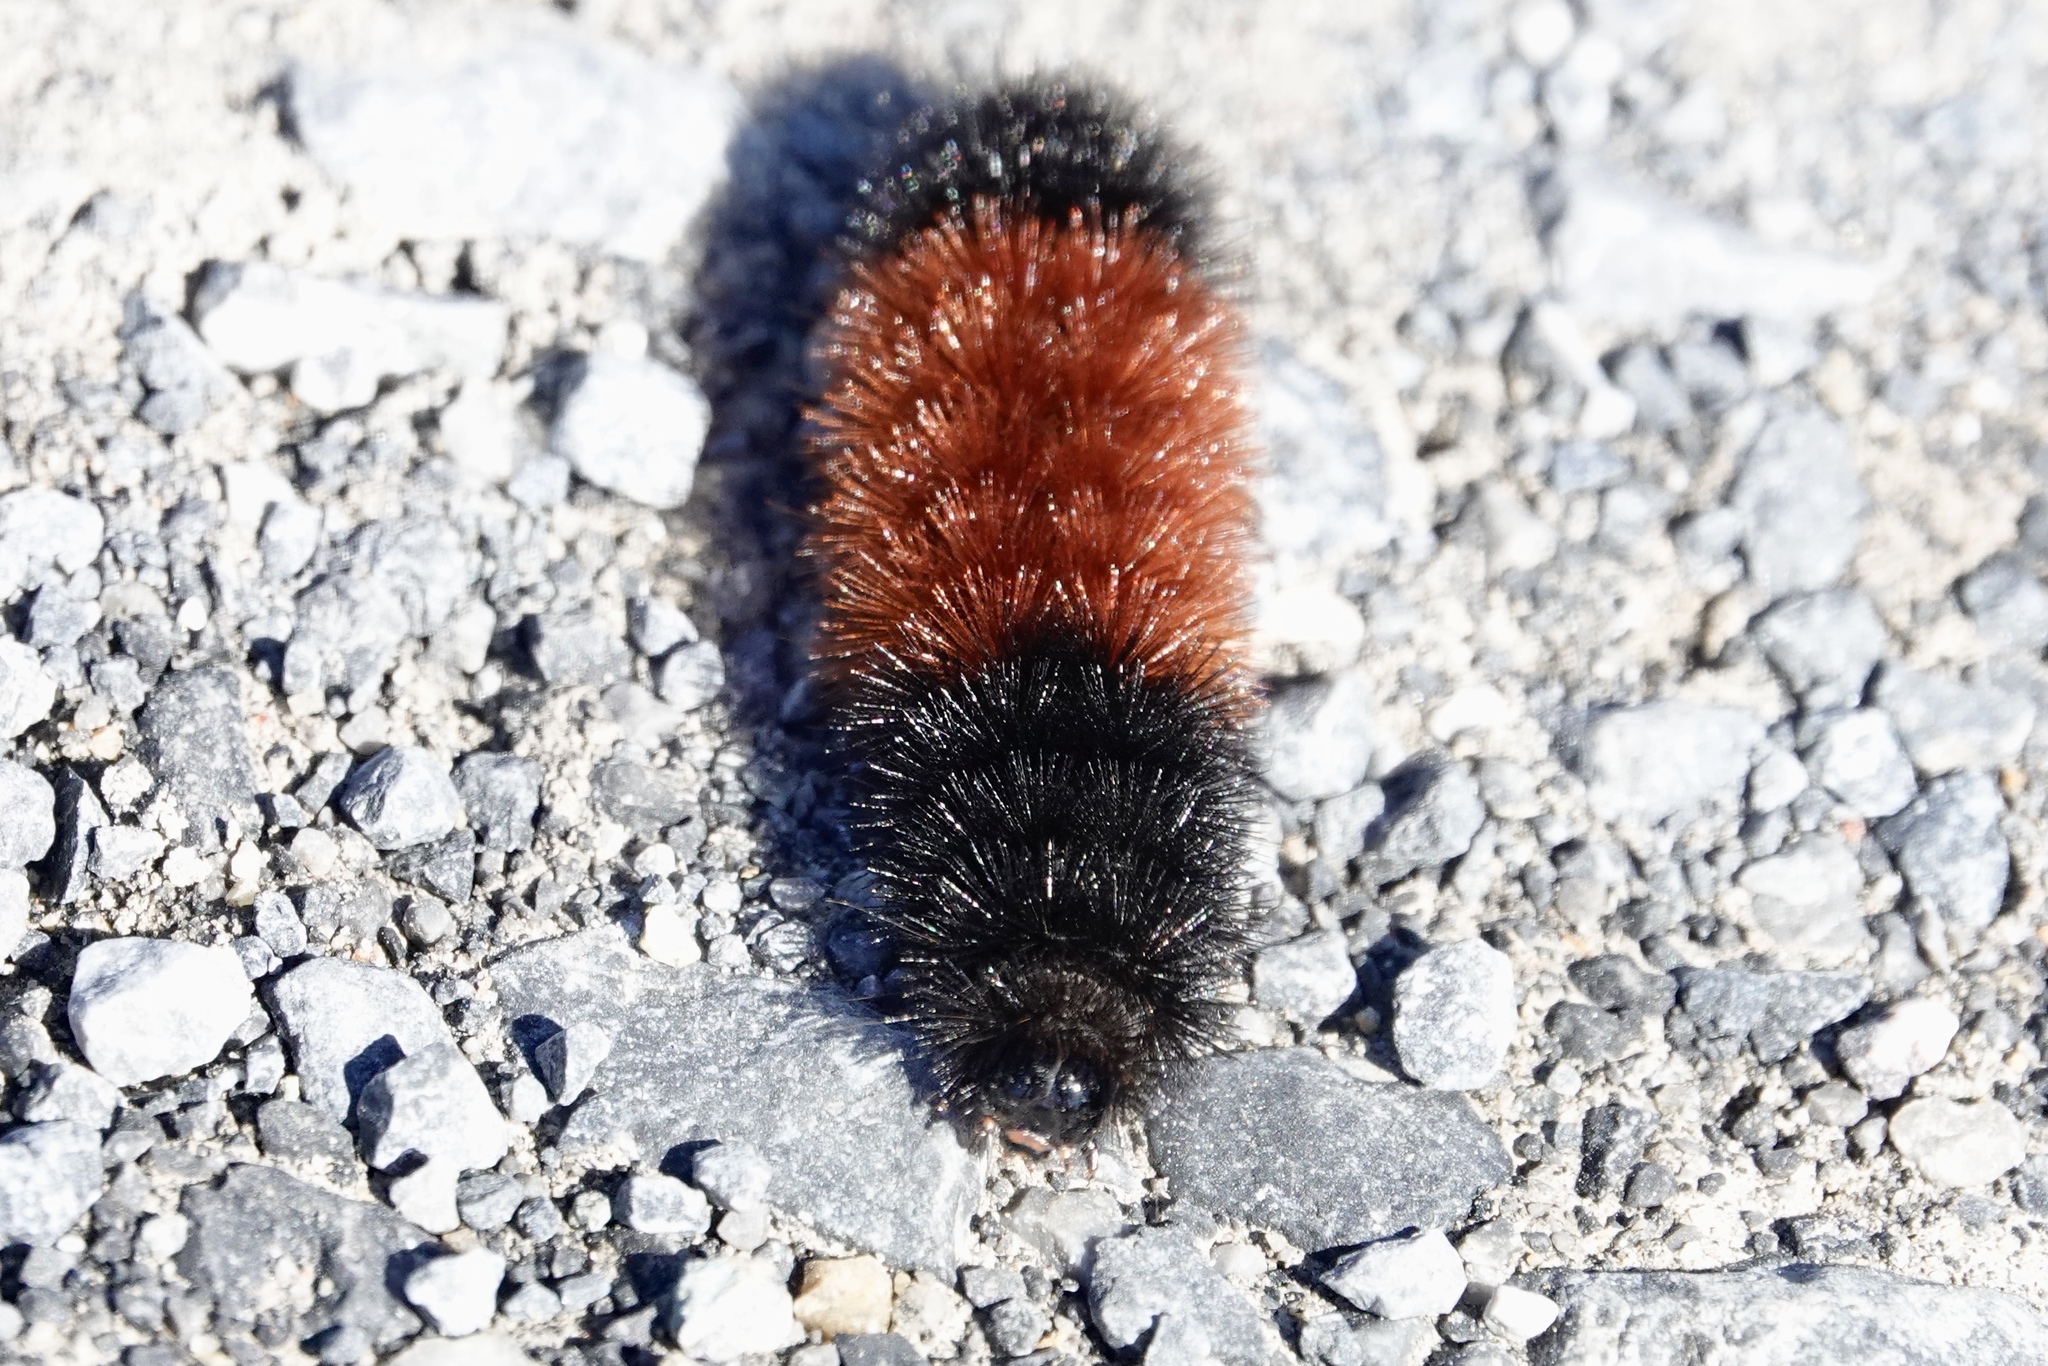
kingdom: Animalia
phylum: Arthropoda
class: Insecta
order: Lepidoptera
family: Erebidae
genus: Pyrrharctia
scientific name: Pyrrharctia isabella
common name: Isabella tiger moth
